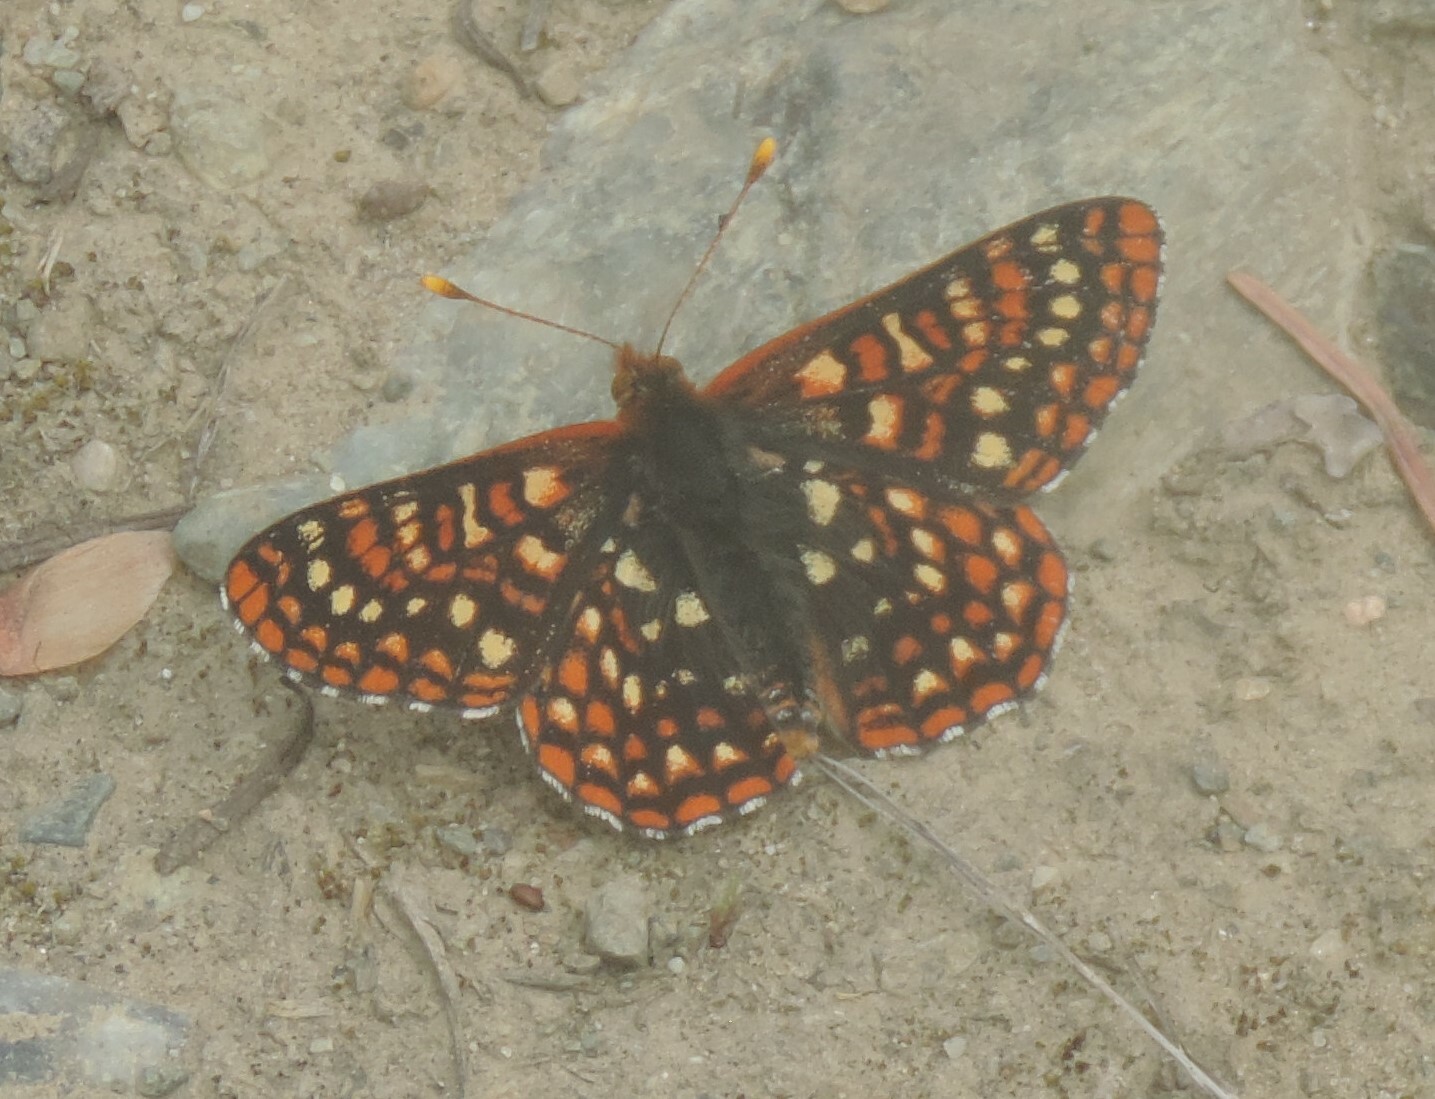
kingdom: Animalia
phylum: Arthropoda
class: Insecta
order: Lepidoptera
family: Nymphalidae
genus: Occidryas
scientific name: Occidryas anicia
